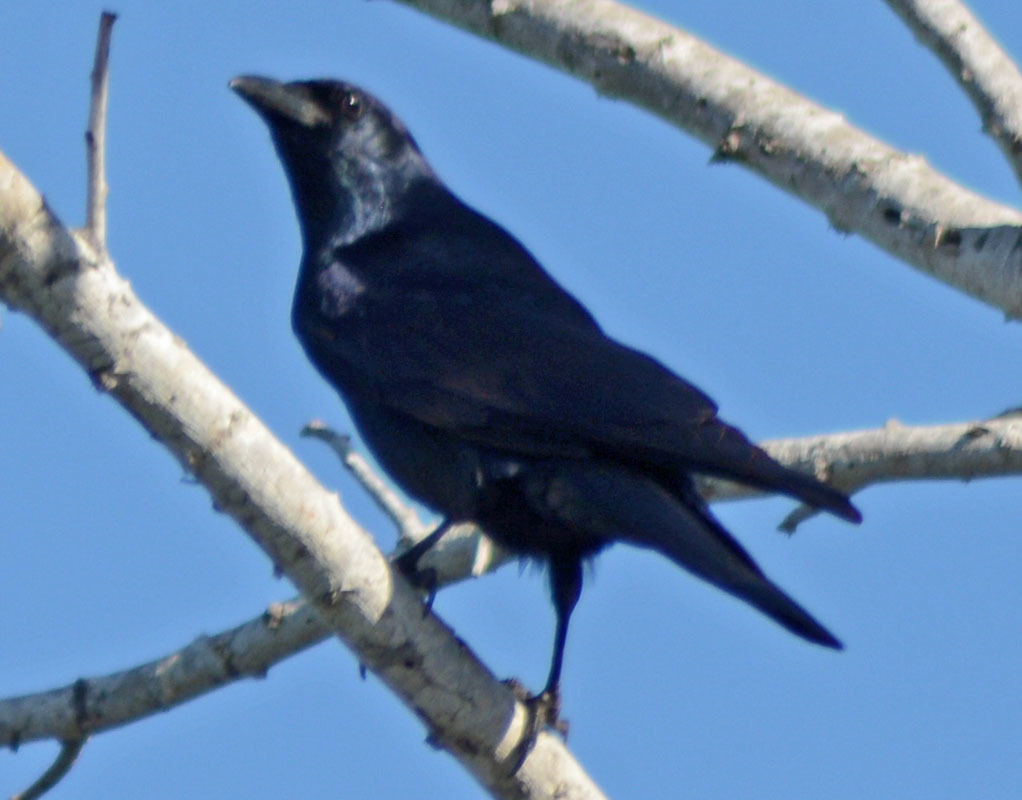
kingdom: Animalia
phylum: Chordata
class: Aves
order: Passeriformes
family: Corvidae
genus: Corvus
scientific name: Corvus sinaloae
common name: Sinaloa crow
